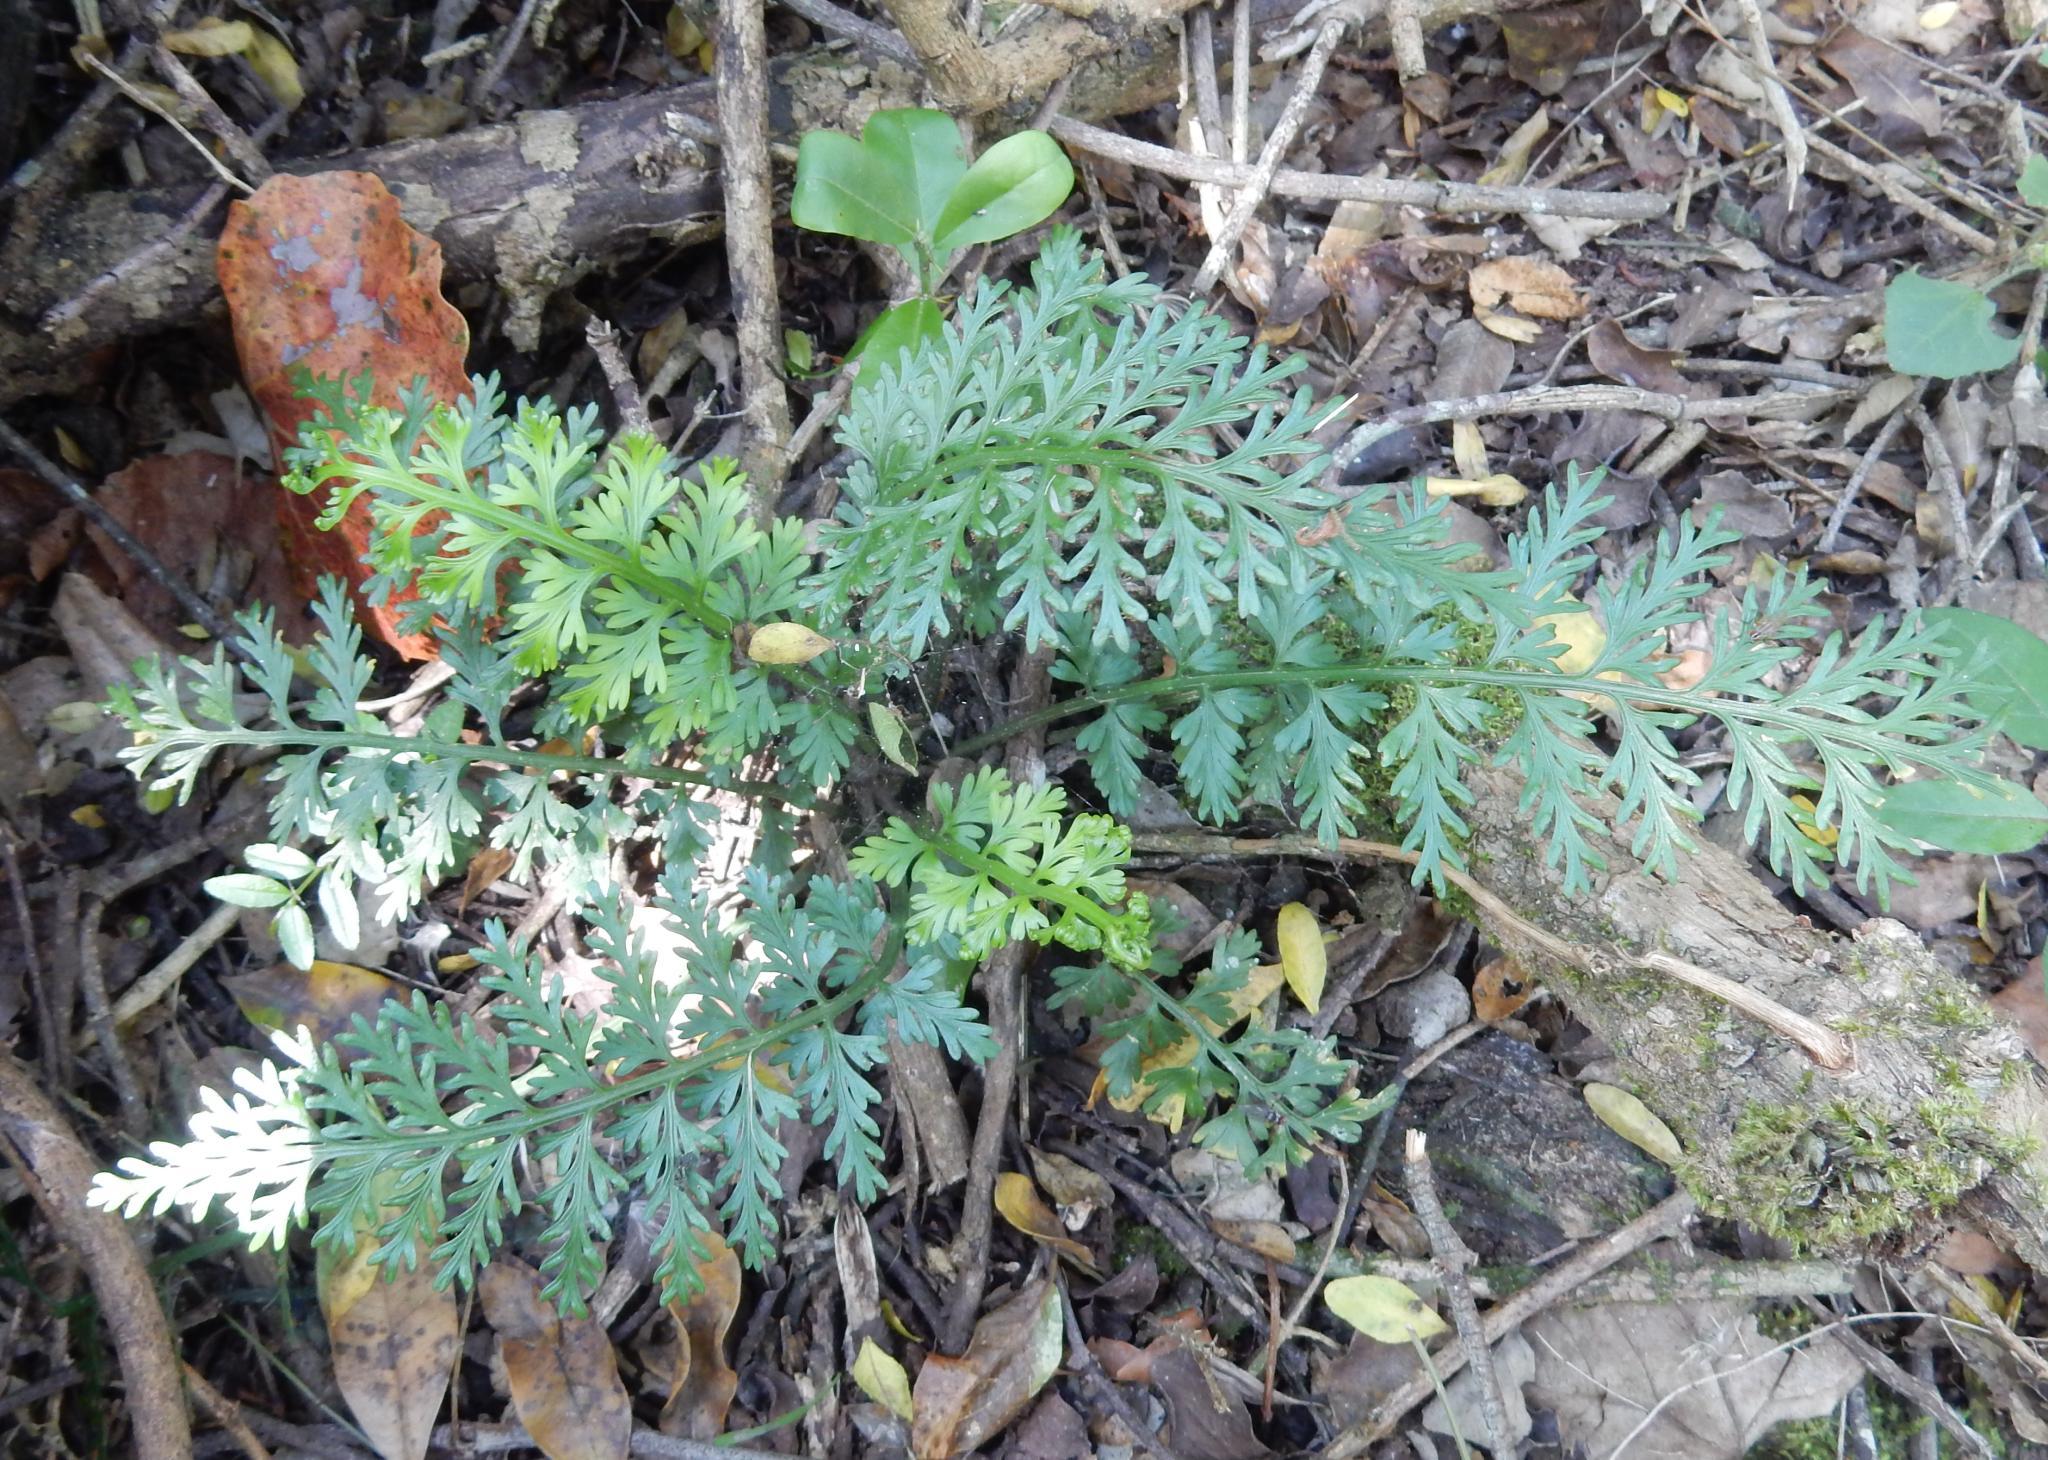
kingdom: Plantae
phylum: Tracheophyta
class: Polypodiopsida
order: Polypodiales
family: Aspleniaceae
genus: Asplenium
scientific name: Asplenium rutifolium
